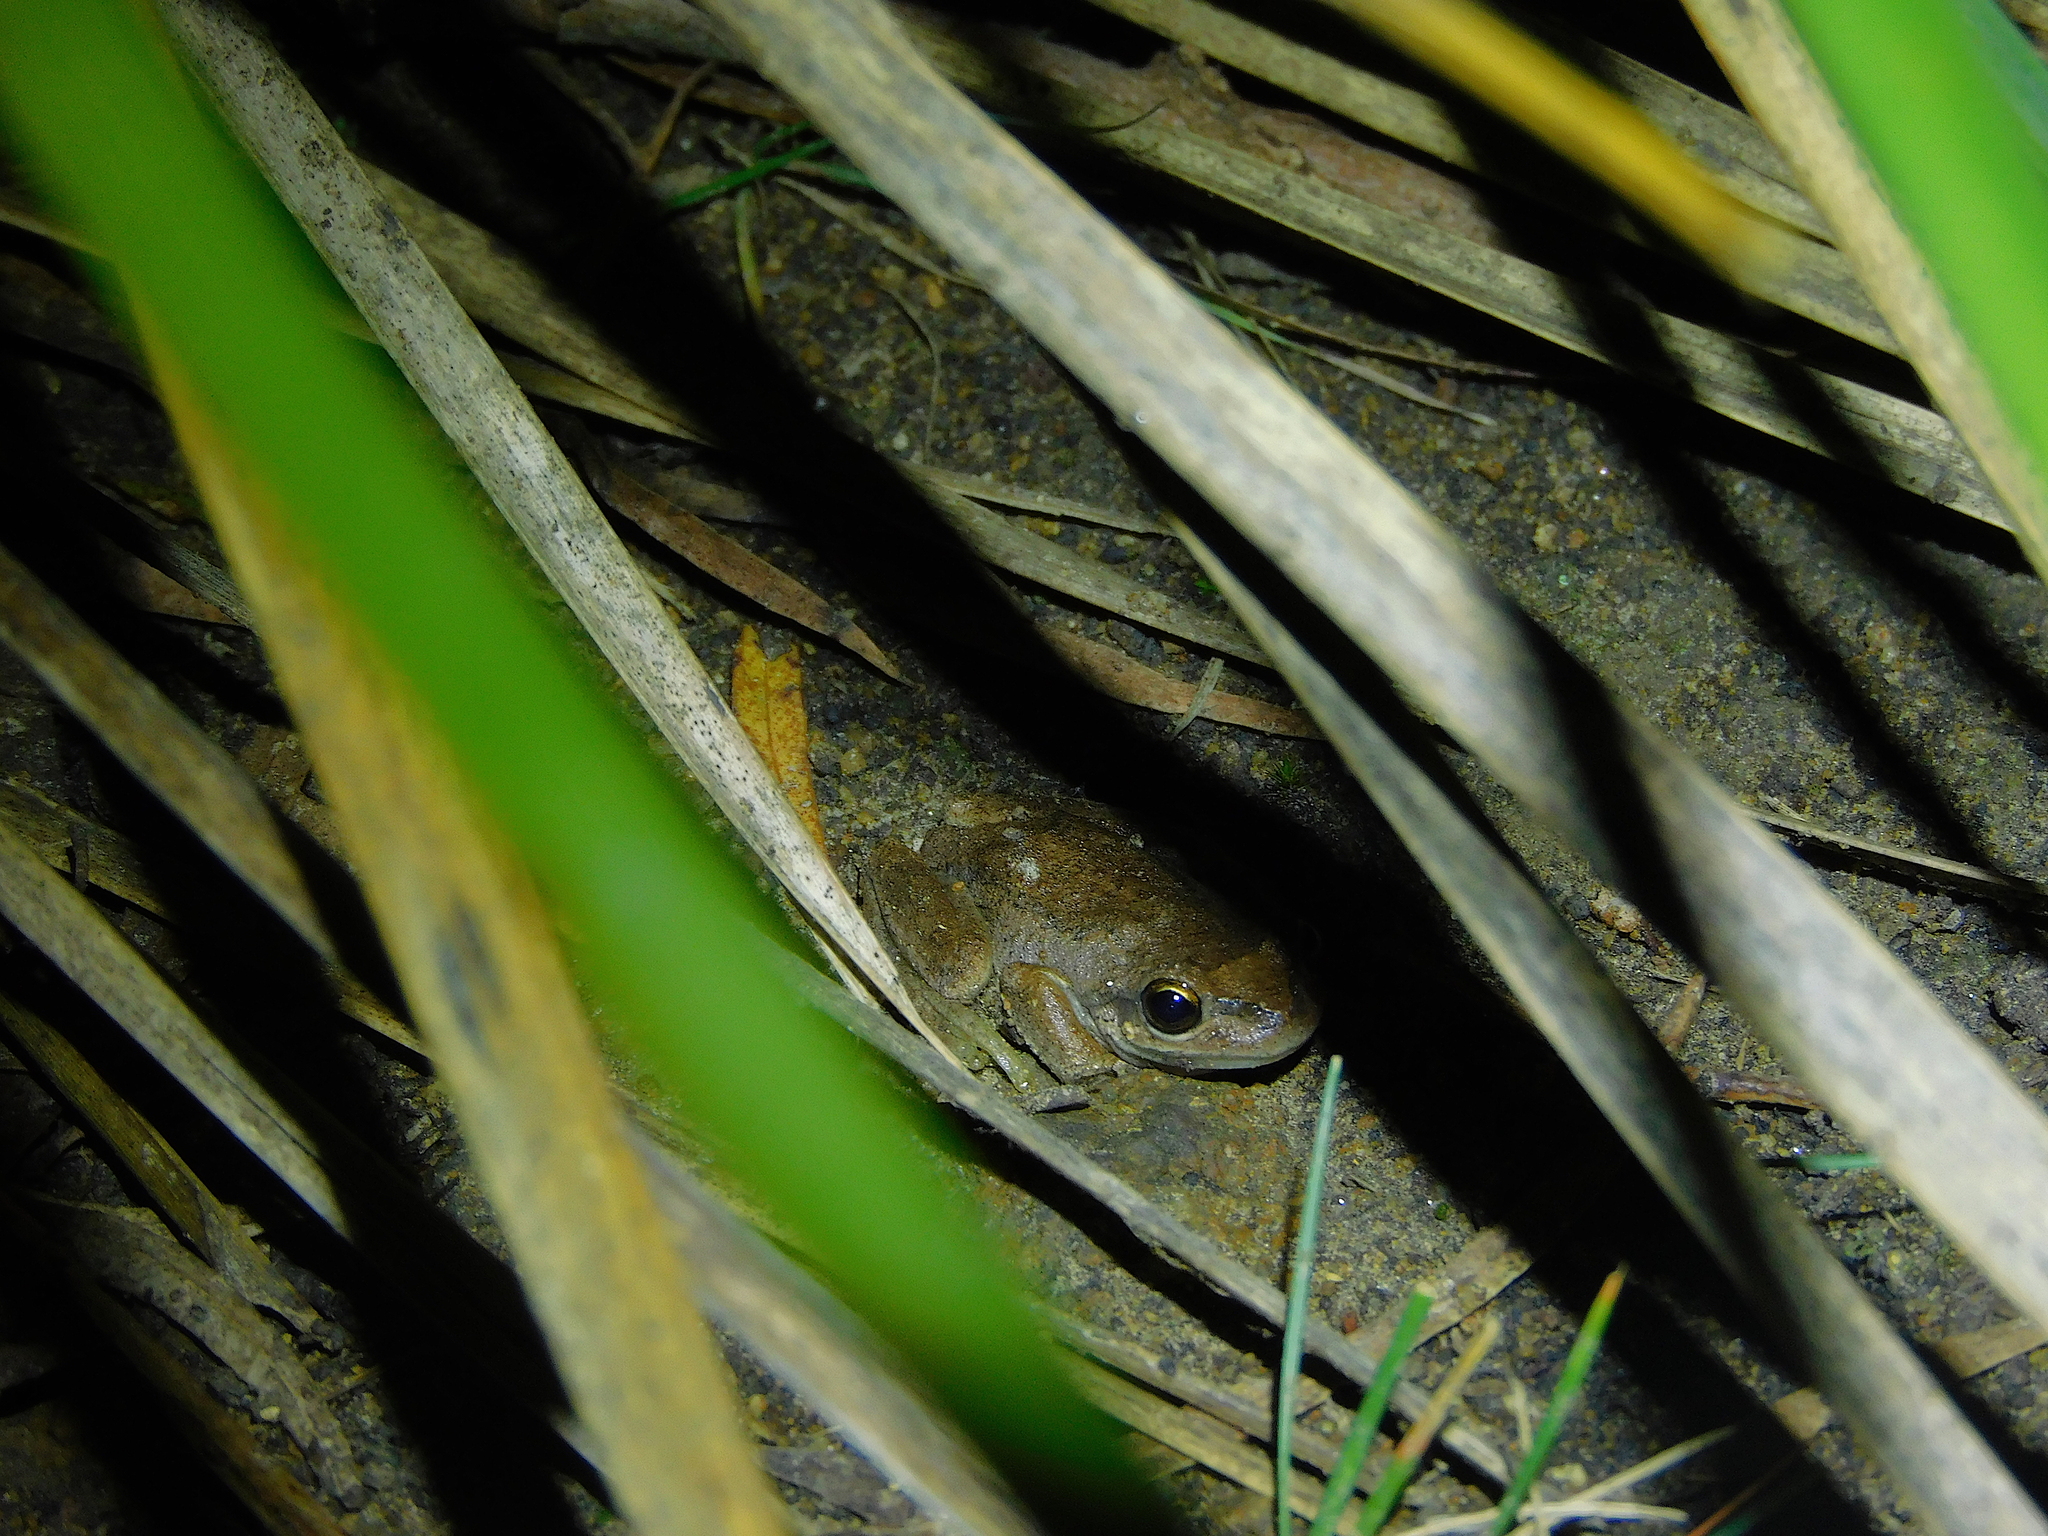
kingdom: Animalia
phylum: Chordata
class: Amphibia
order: Anura
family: Pelodryadidae
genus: Litoria
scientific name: Litoria ewingii
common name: Southern brown tree frog
